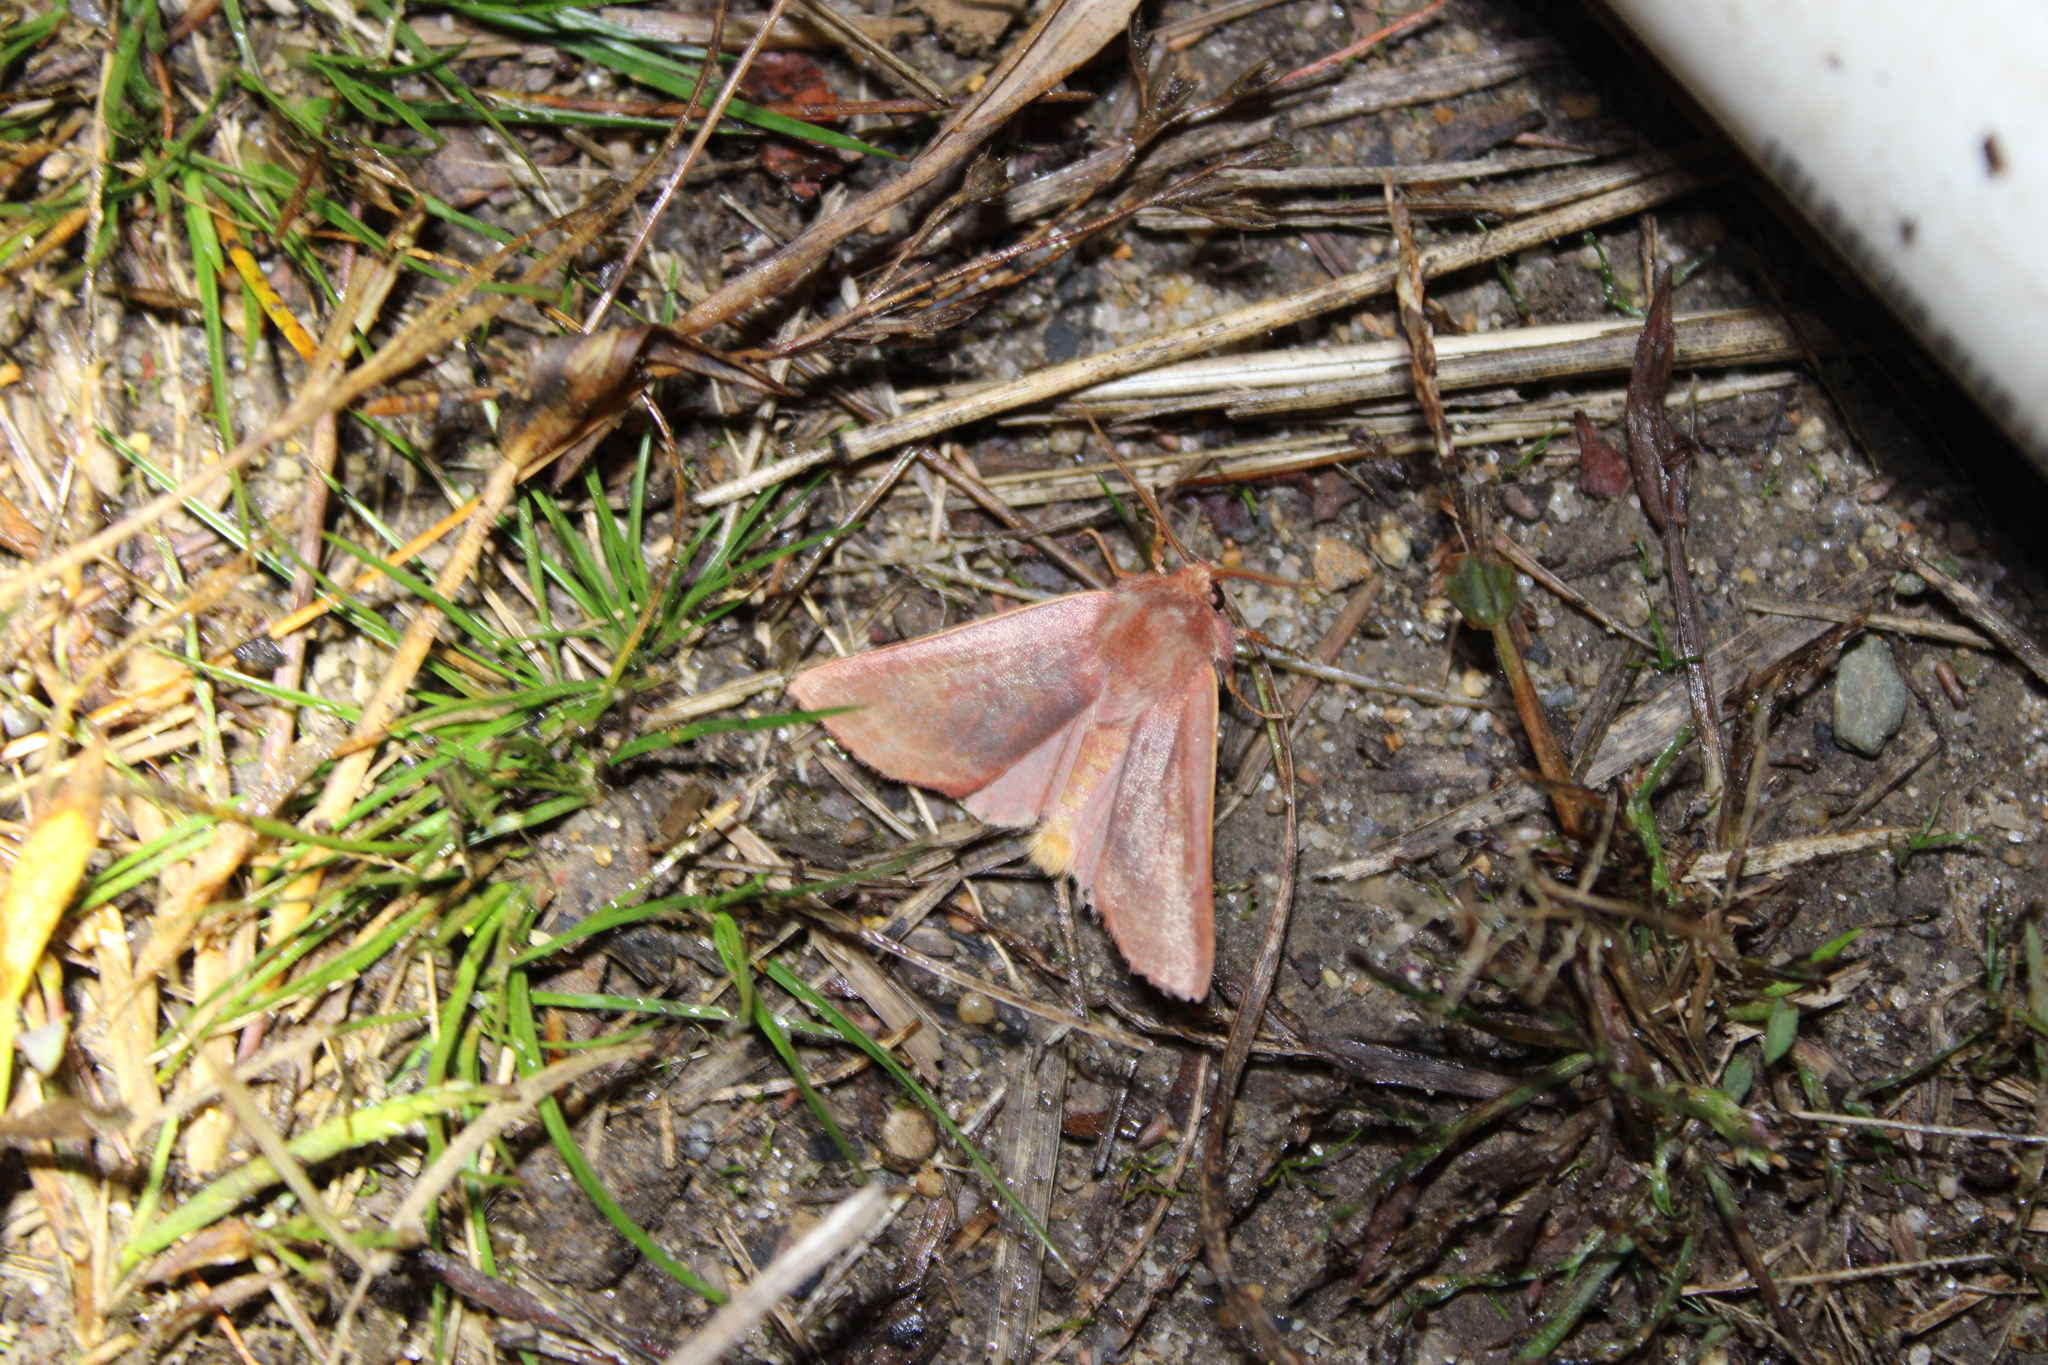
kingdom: Animalia
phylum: Arthropoda
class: Insecta
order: Lepidoptera
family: Noctuidae
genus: Psectraglaea
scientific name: Psectraglaea carnosa
